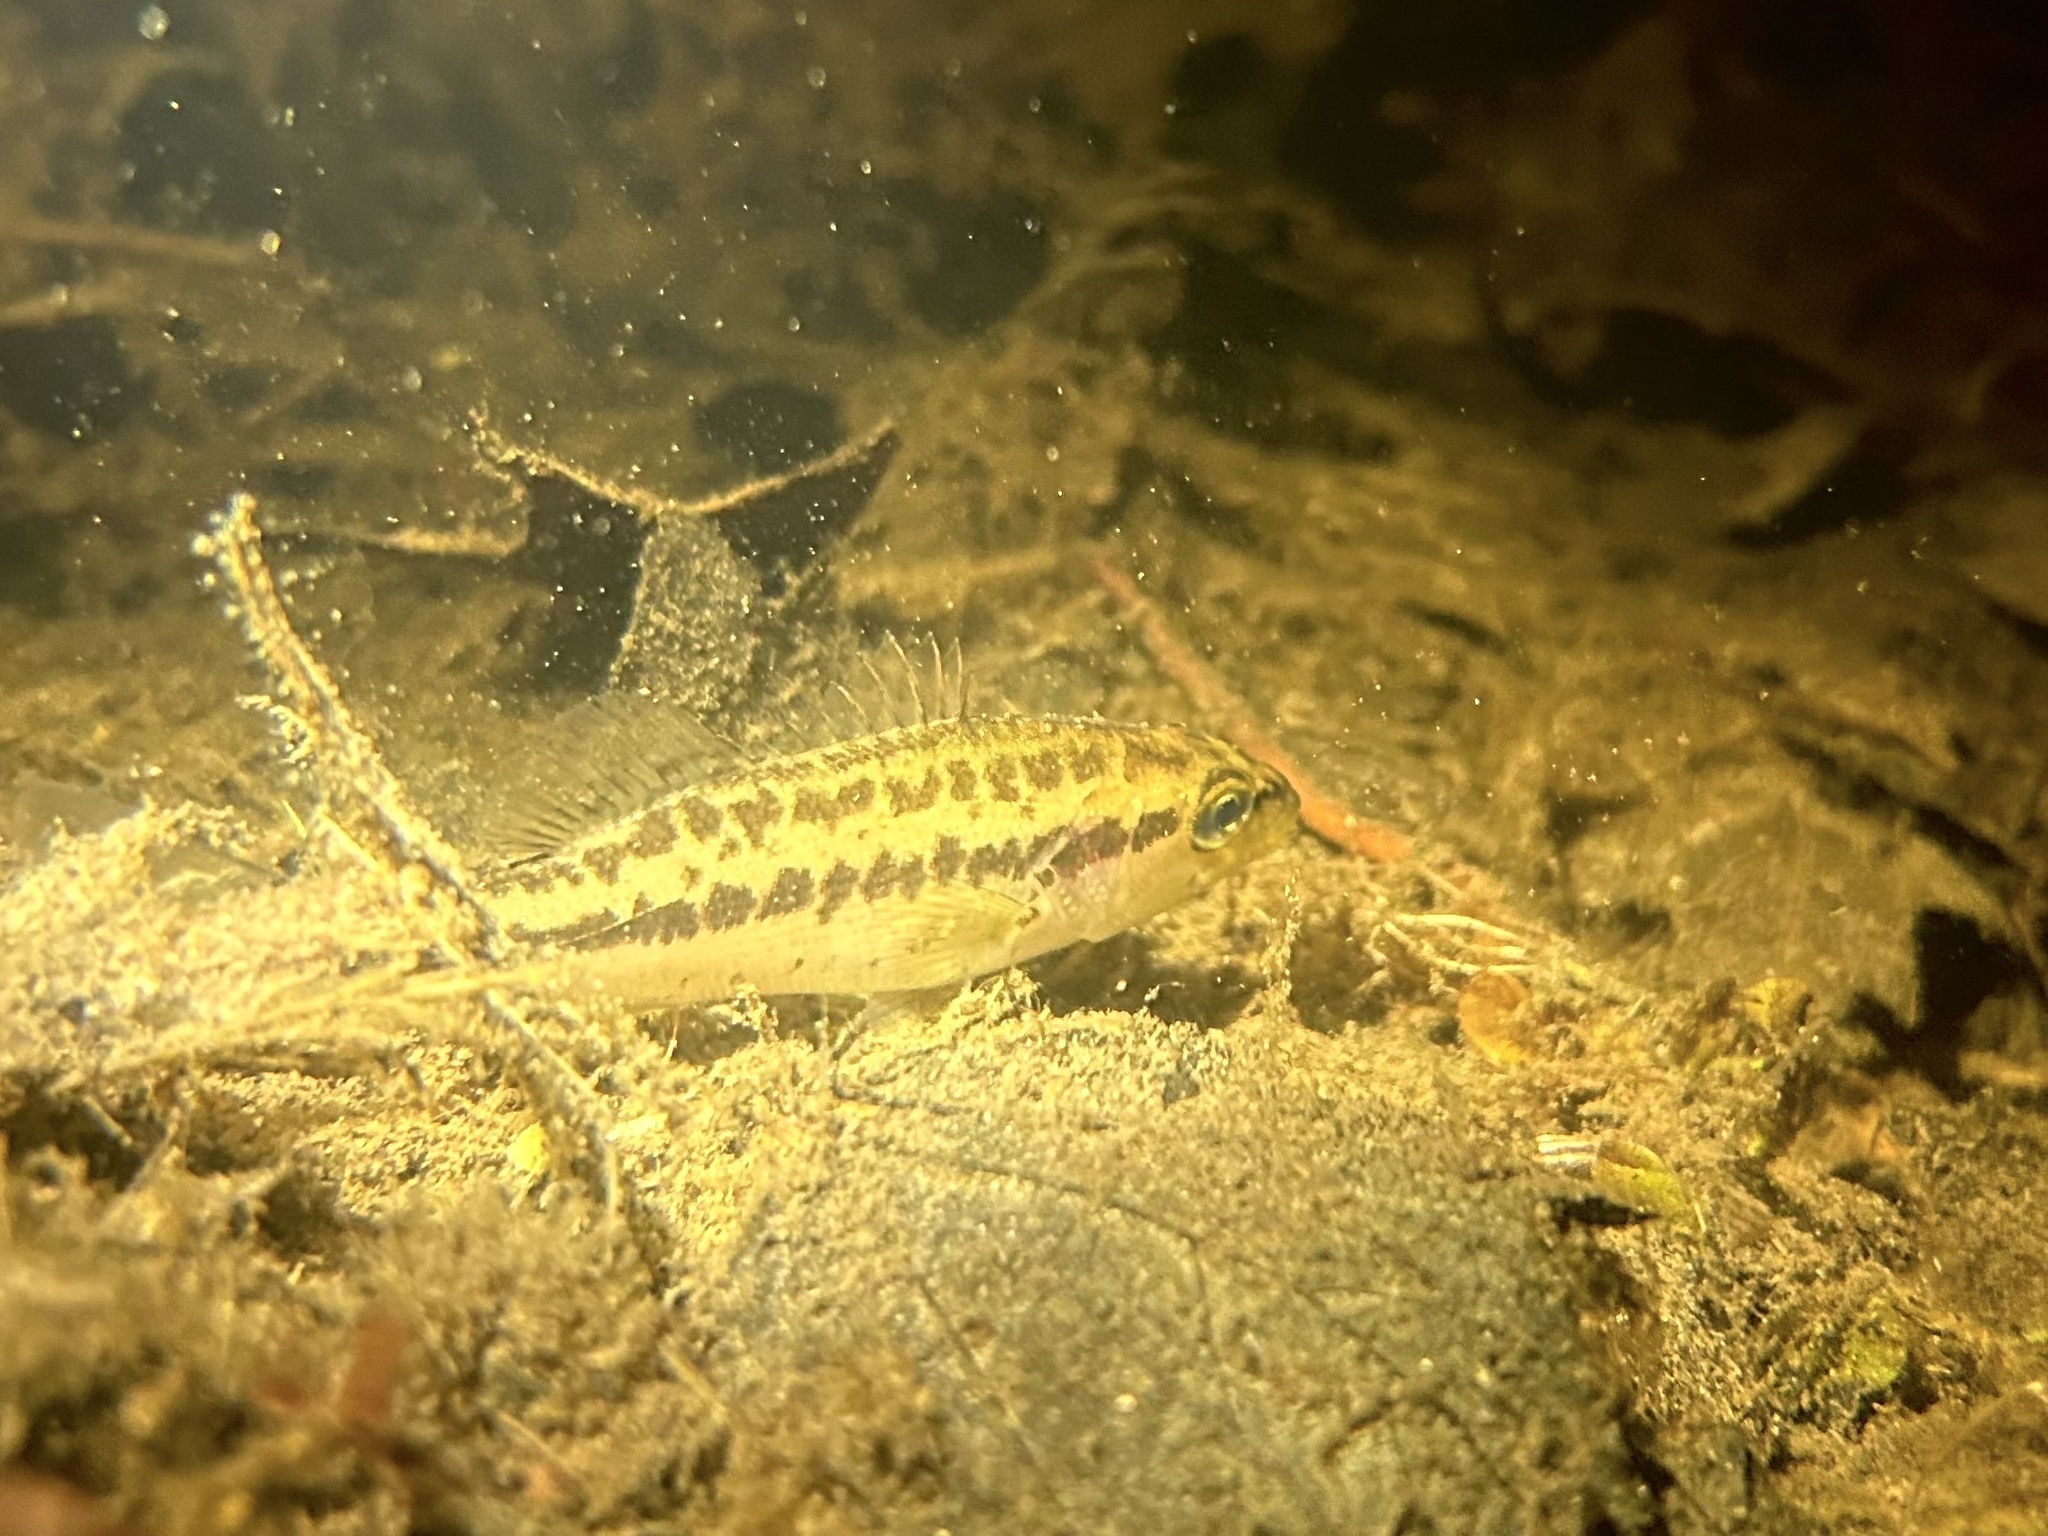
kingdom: Animalia
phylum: Chordata
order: Perciformes
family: Centrarchidae
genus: Micropterus
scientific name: Micropterus
